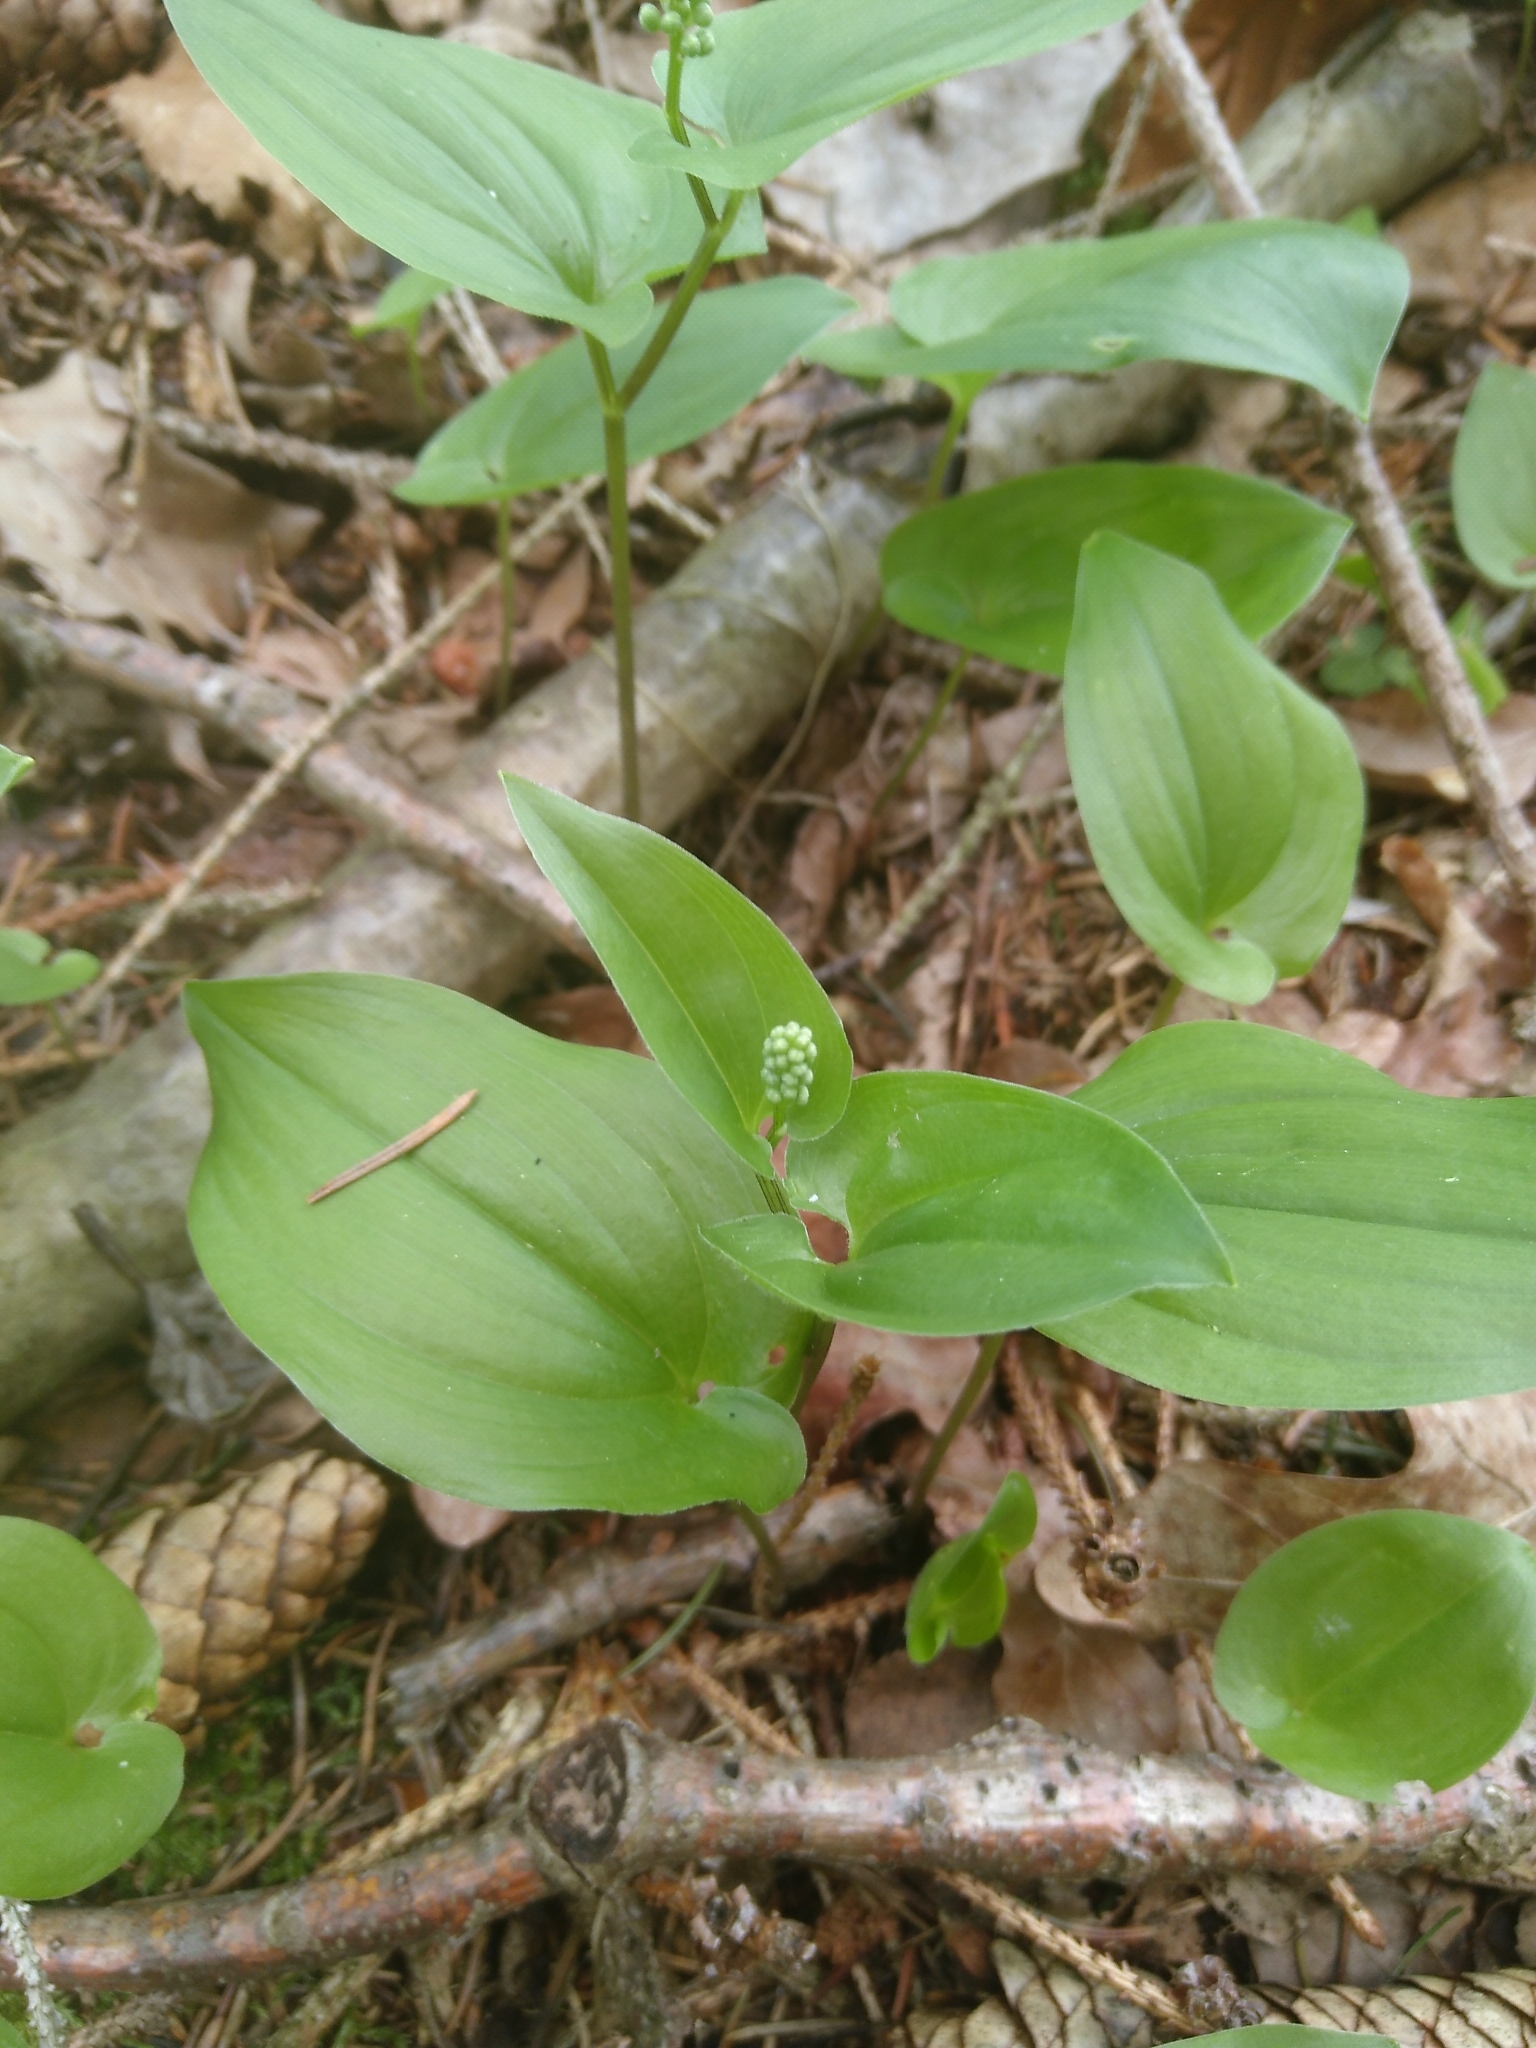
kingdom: Plantae
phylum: Tracheophyta
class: Liliopsida
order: Asparagales
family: Asparagaceae
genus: Maianthemum
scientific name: Maianthemum bifolium
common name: May lily
